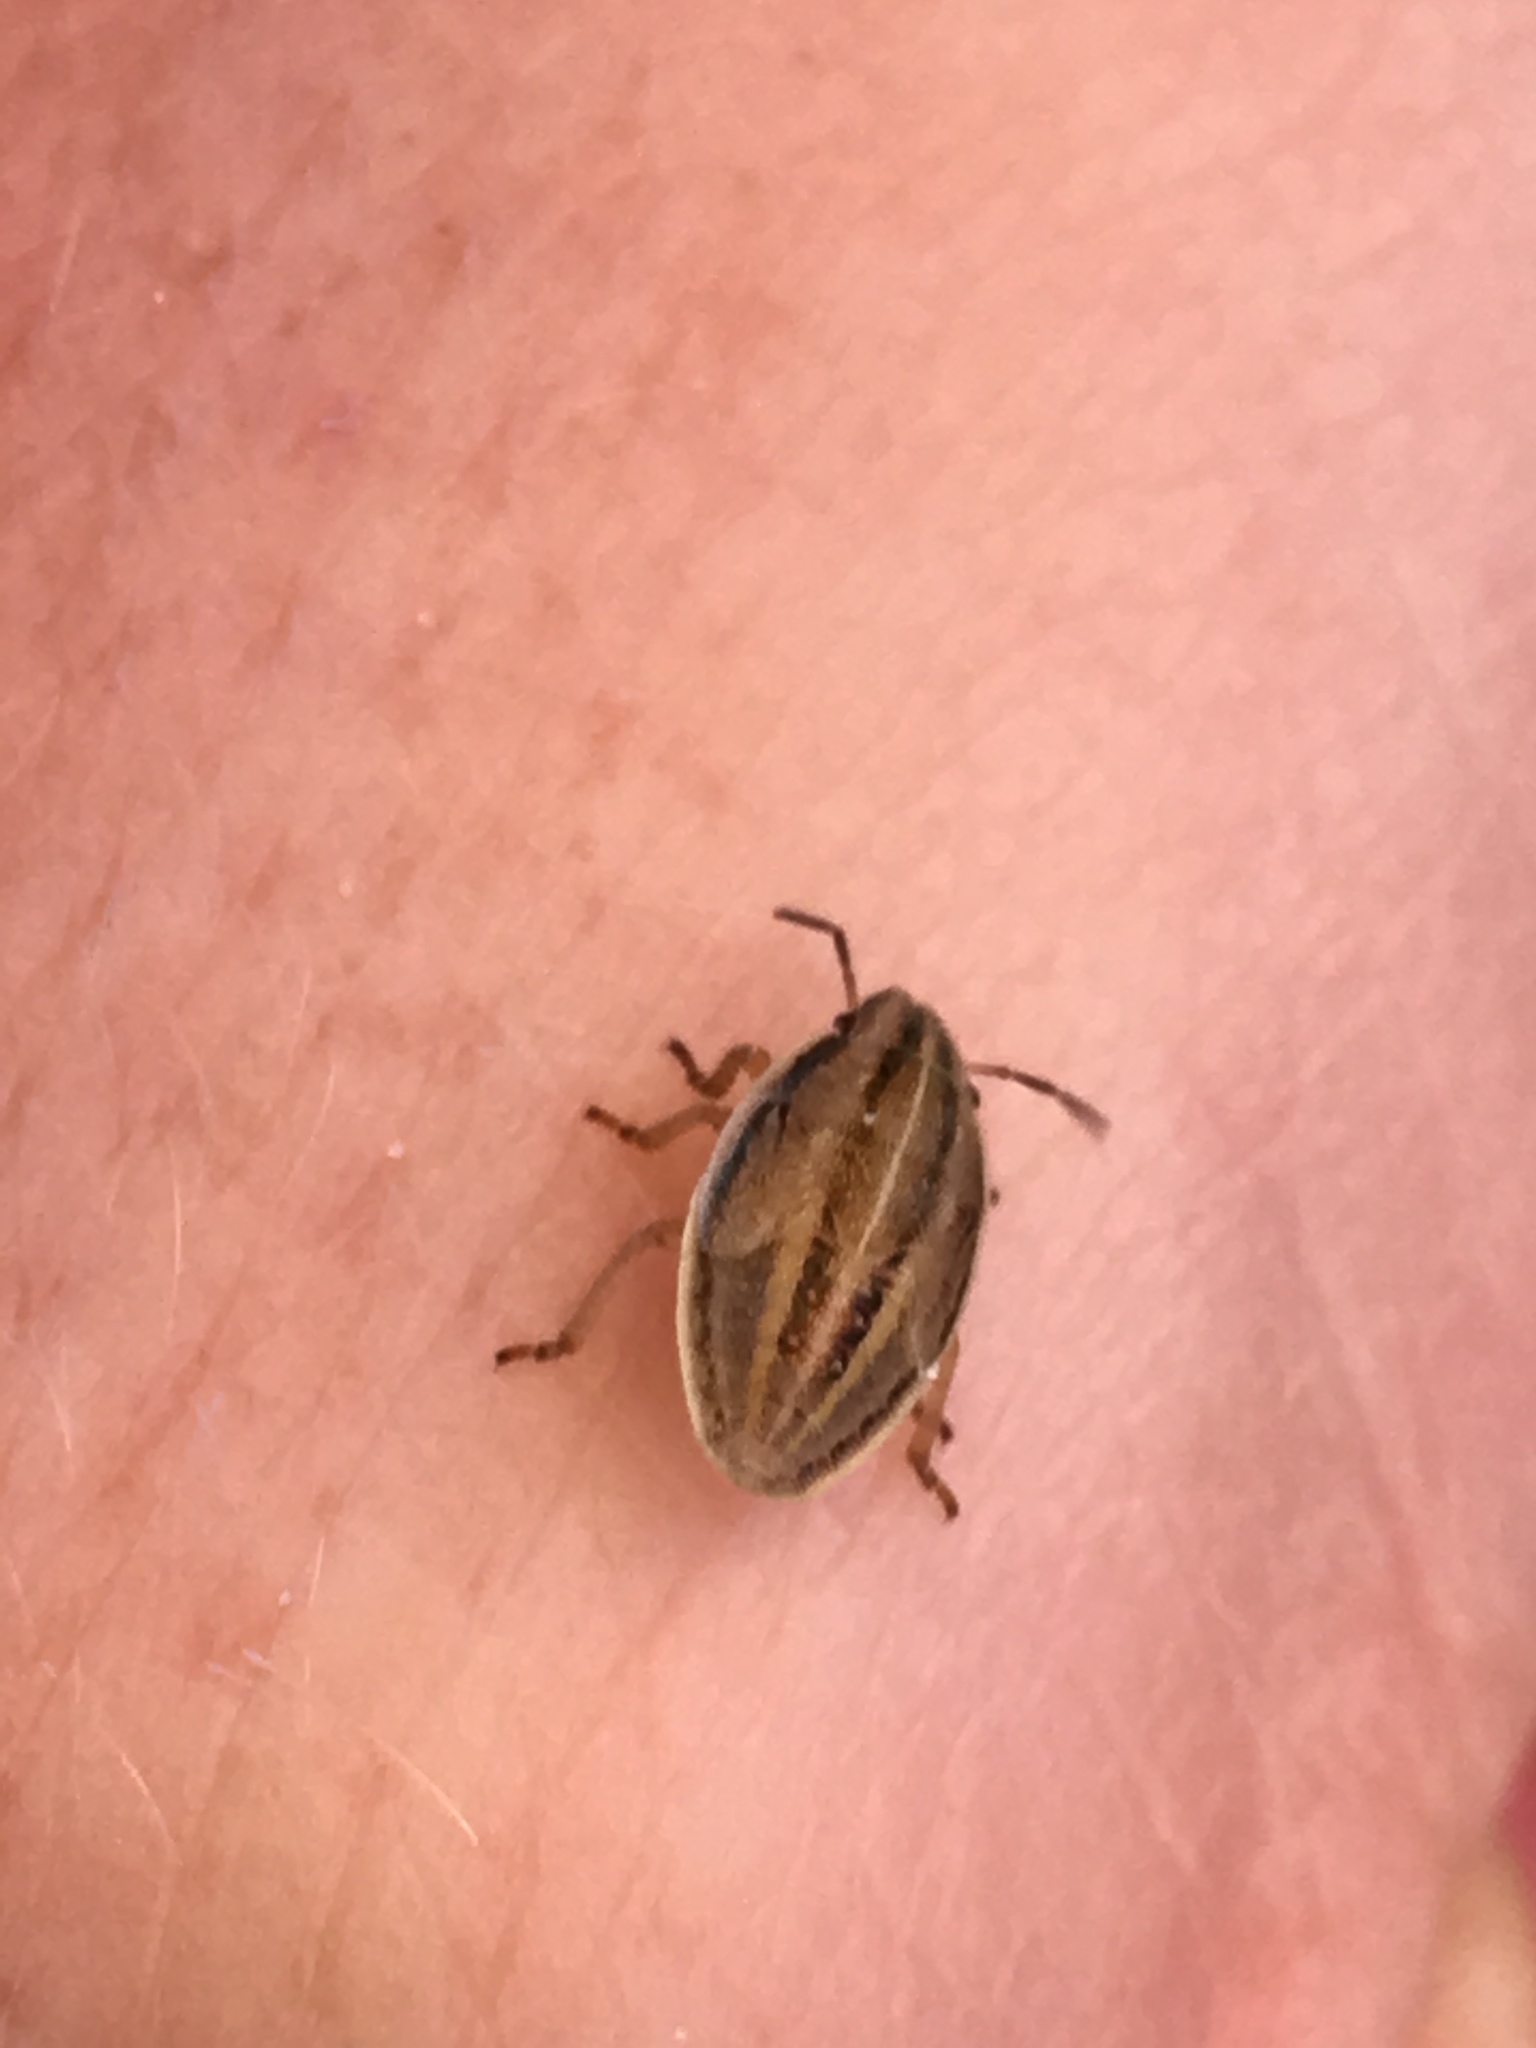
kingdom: Animalia
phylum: Arthropoda
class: Insecta
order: Hemiptera
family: Pentatomidae
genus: Aelia
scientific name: Aelia acuminata
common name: Bishop's mitre
